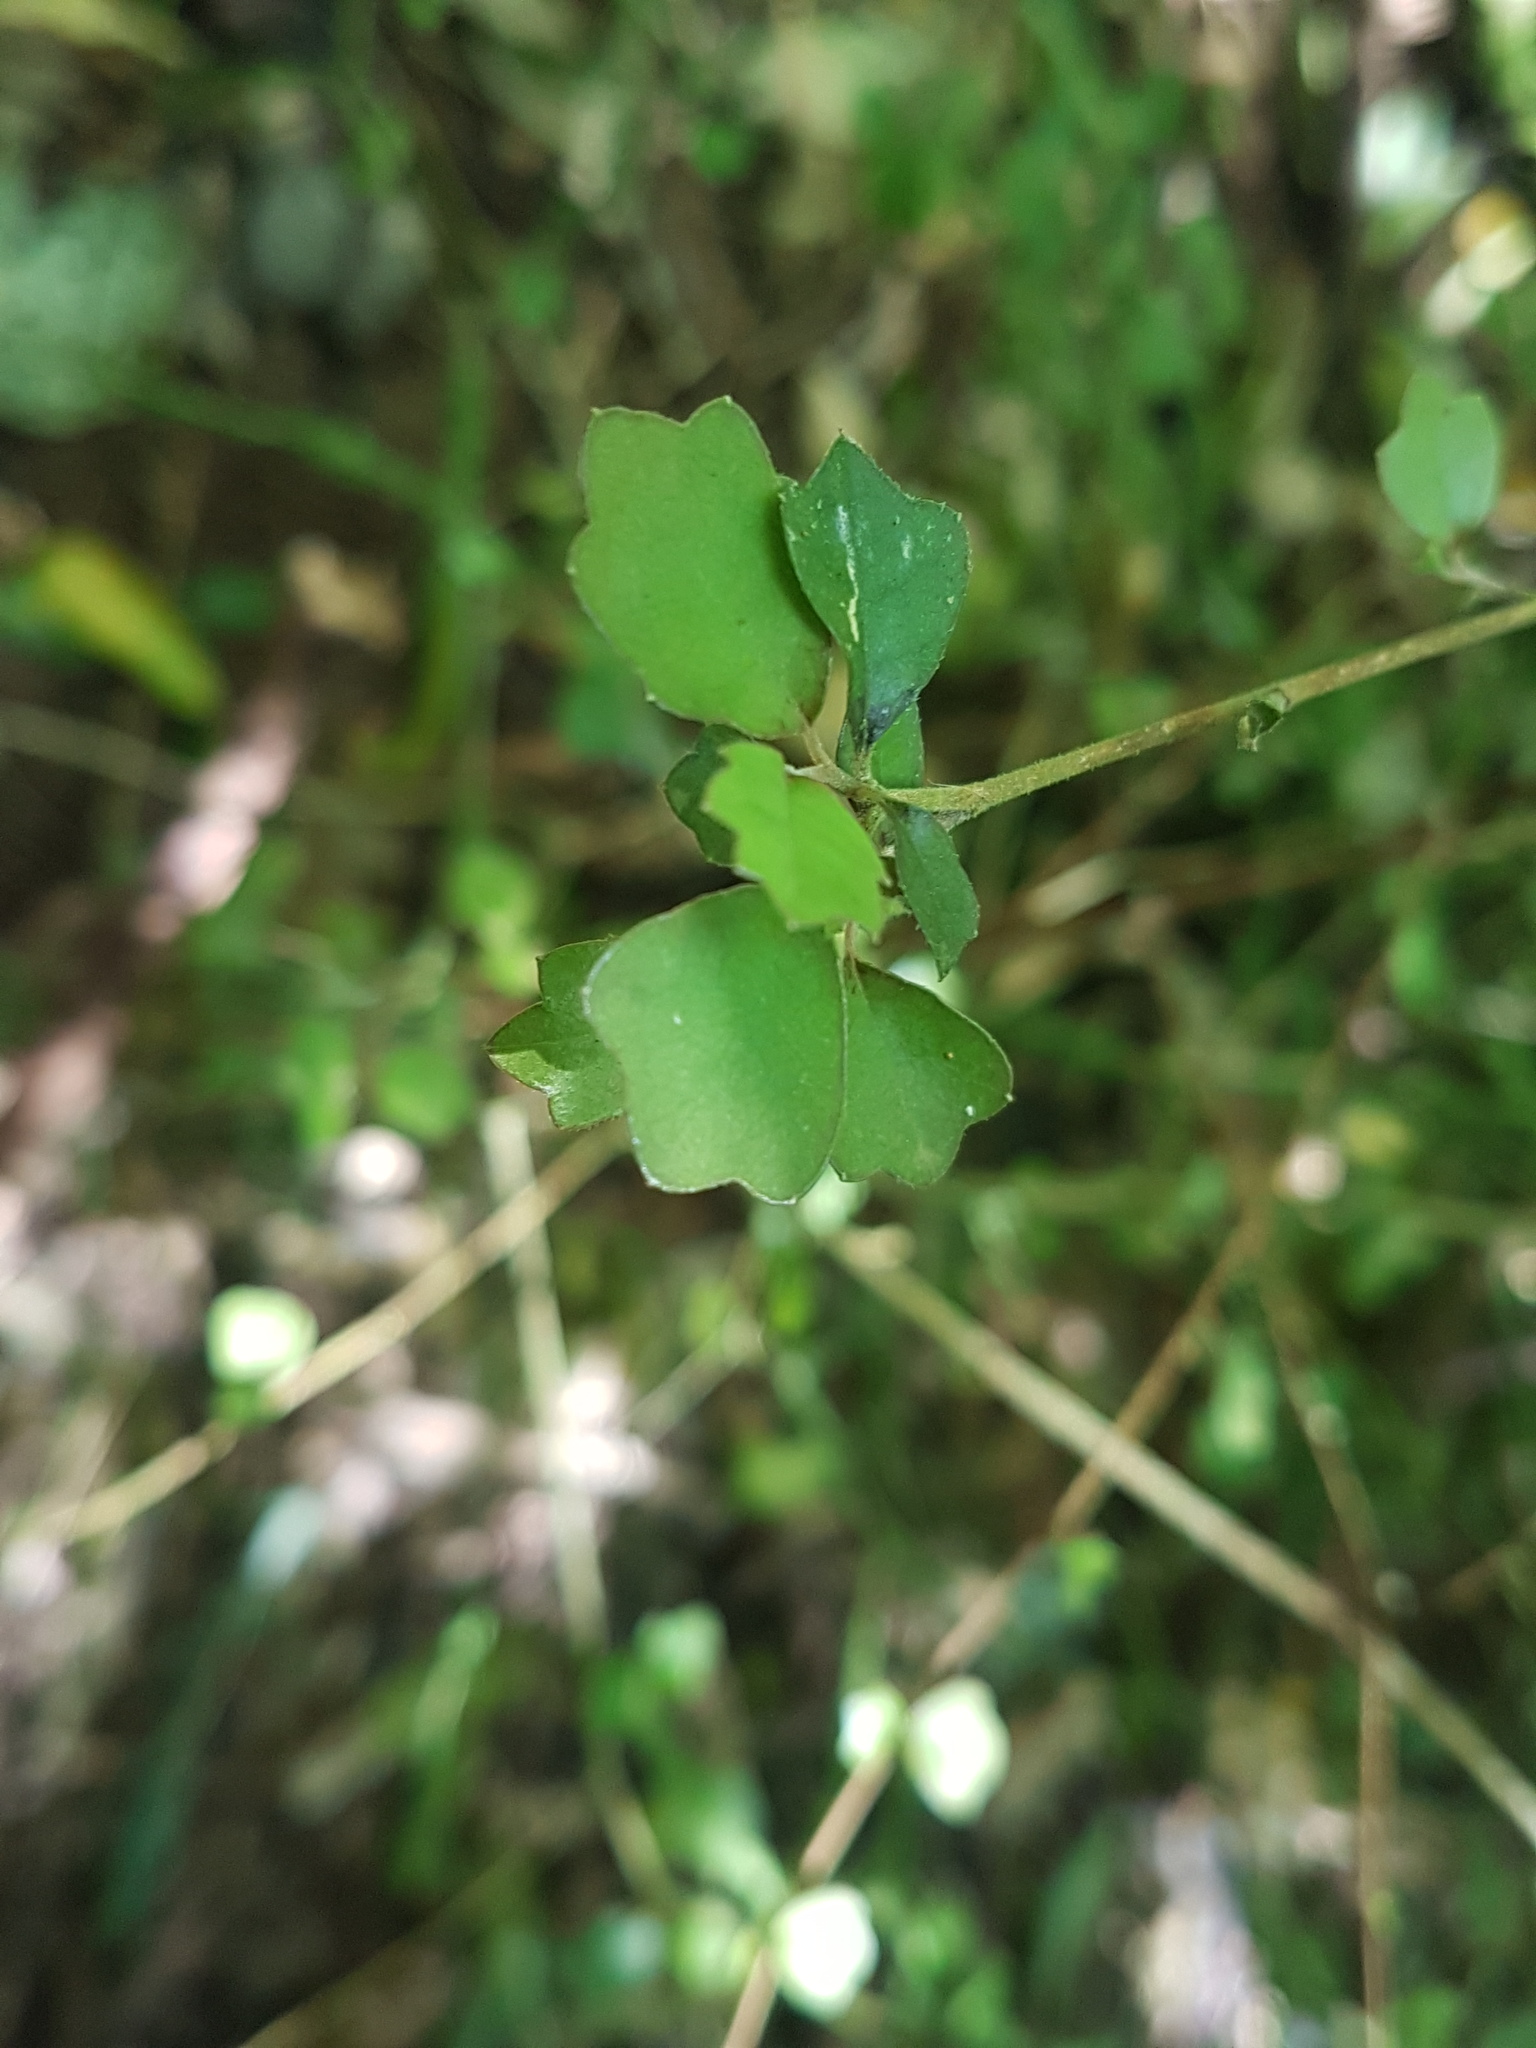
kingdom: Plantae
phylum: Tracheophyta
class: Magnoliopsida
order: Apiales
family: Pennantiaceae
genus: Pennantia
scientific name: Pennantia corymbosa
